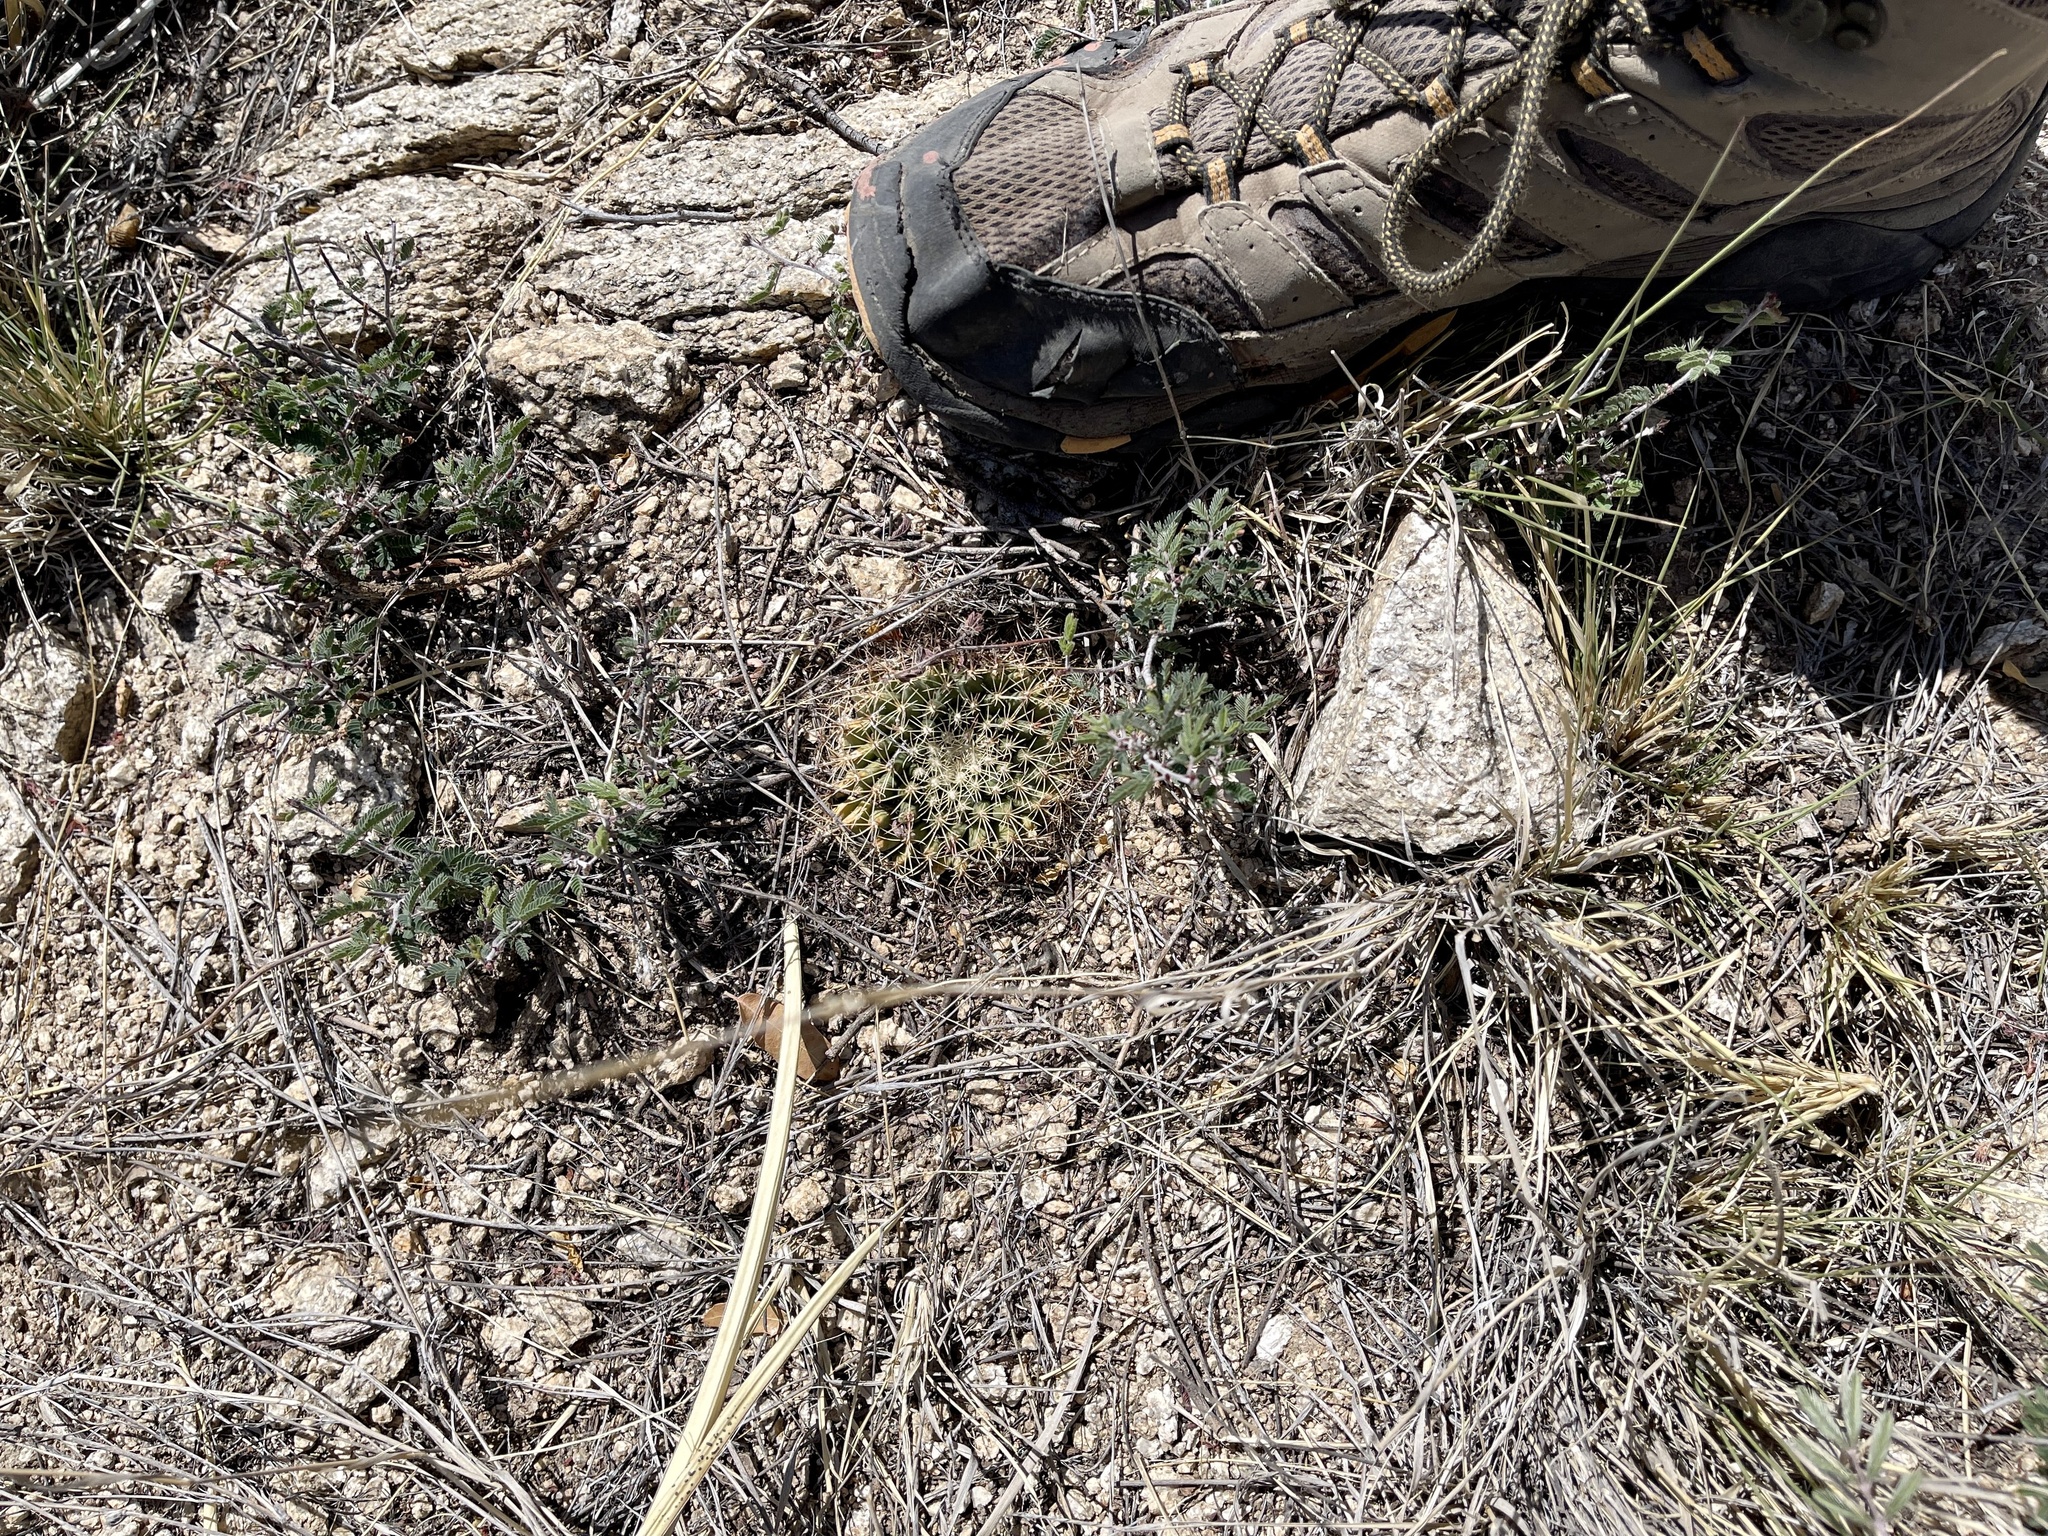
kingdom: Plantae
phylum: Tracheophyta
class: Magnoliopsida
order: Caryophyllales
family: Cactaceae
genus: Mammillaria
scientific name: Mammillaria heyderi
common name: Little nipple cactus
